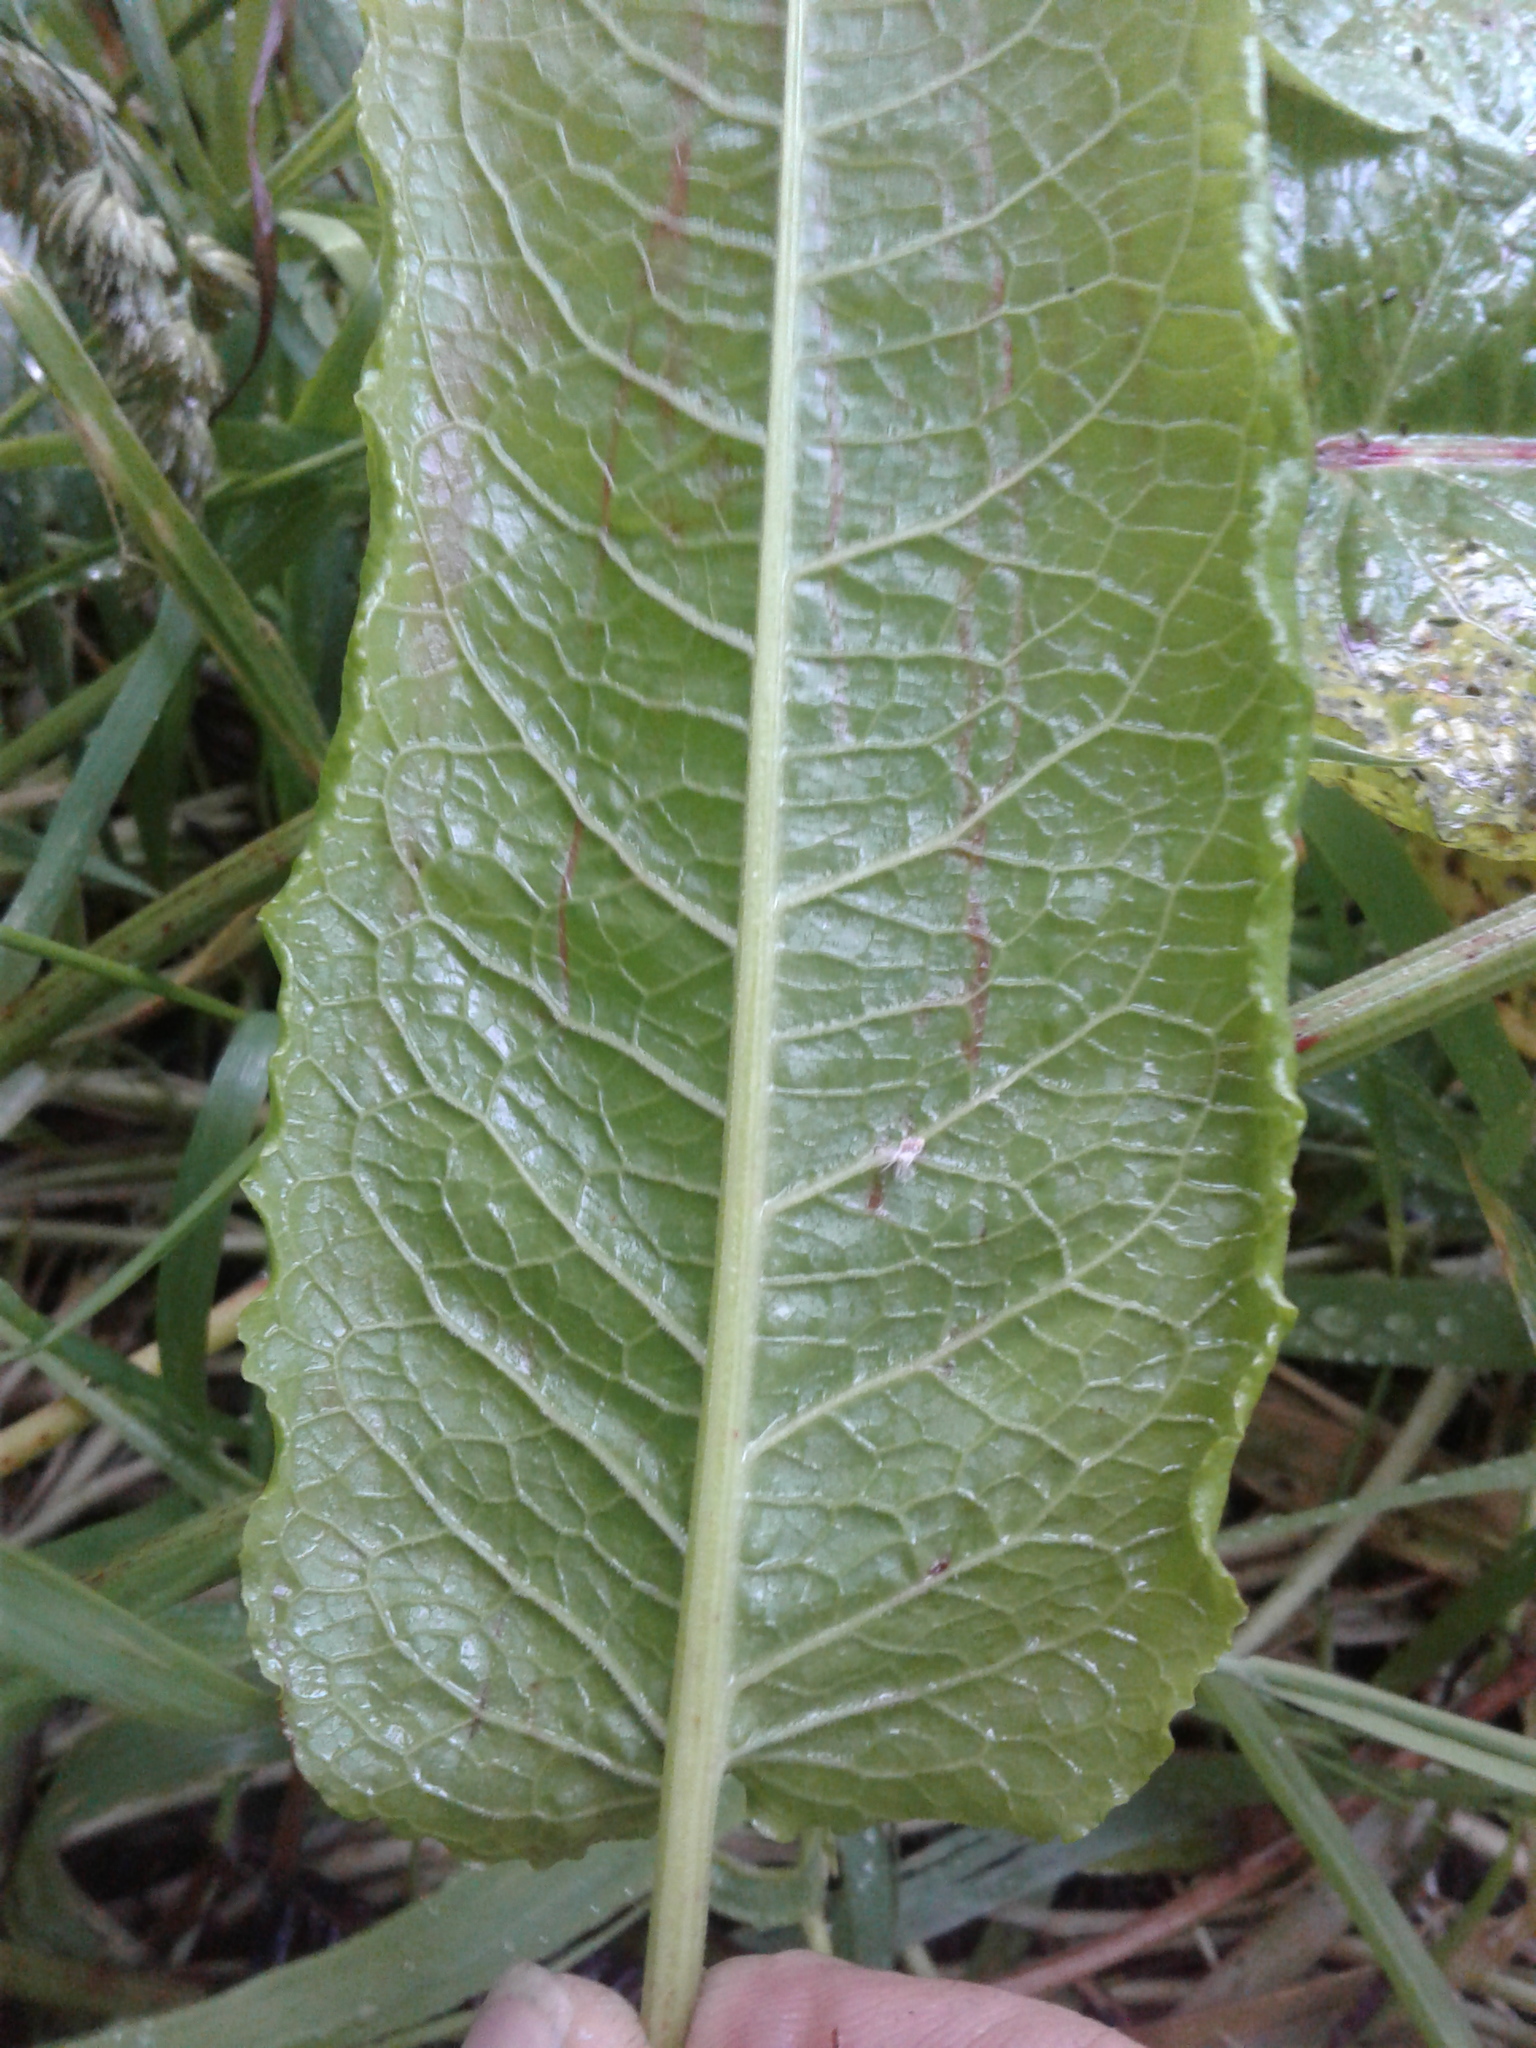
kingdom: Plantae
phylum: Tracheophyta
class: Magnoliopsida
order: Caryophyllales
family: Polygonaceae
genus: Rumex
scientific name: Rumex obtusifolius
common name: Bitter dock
